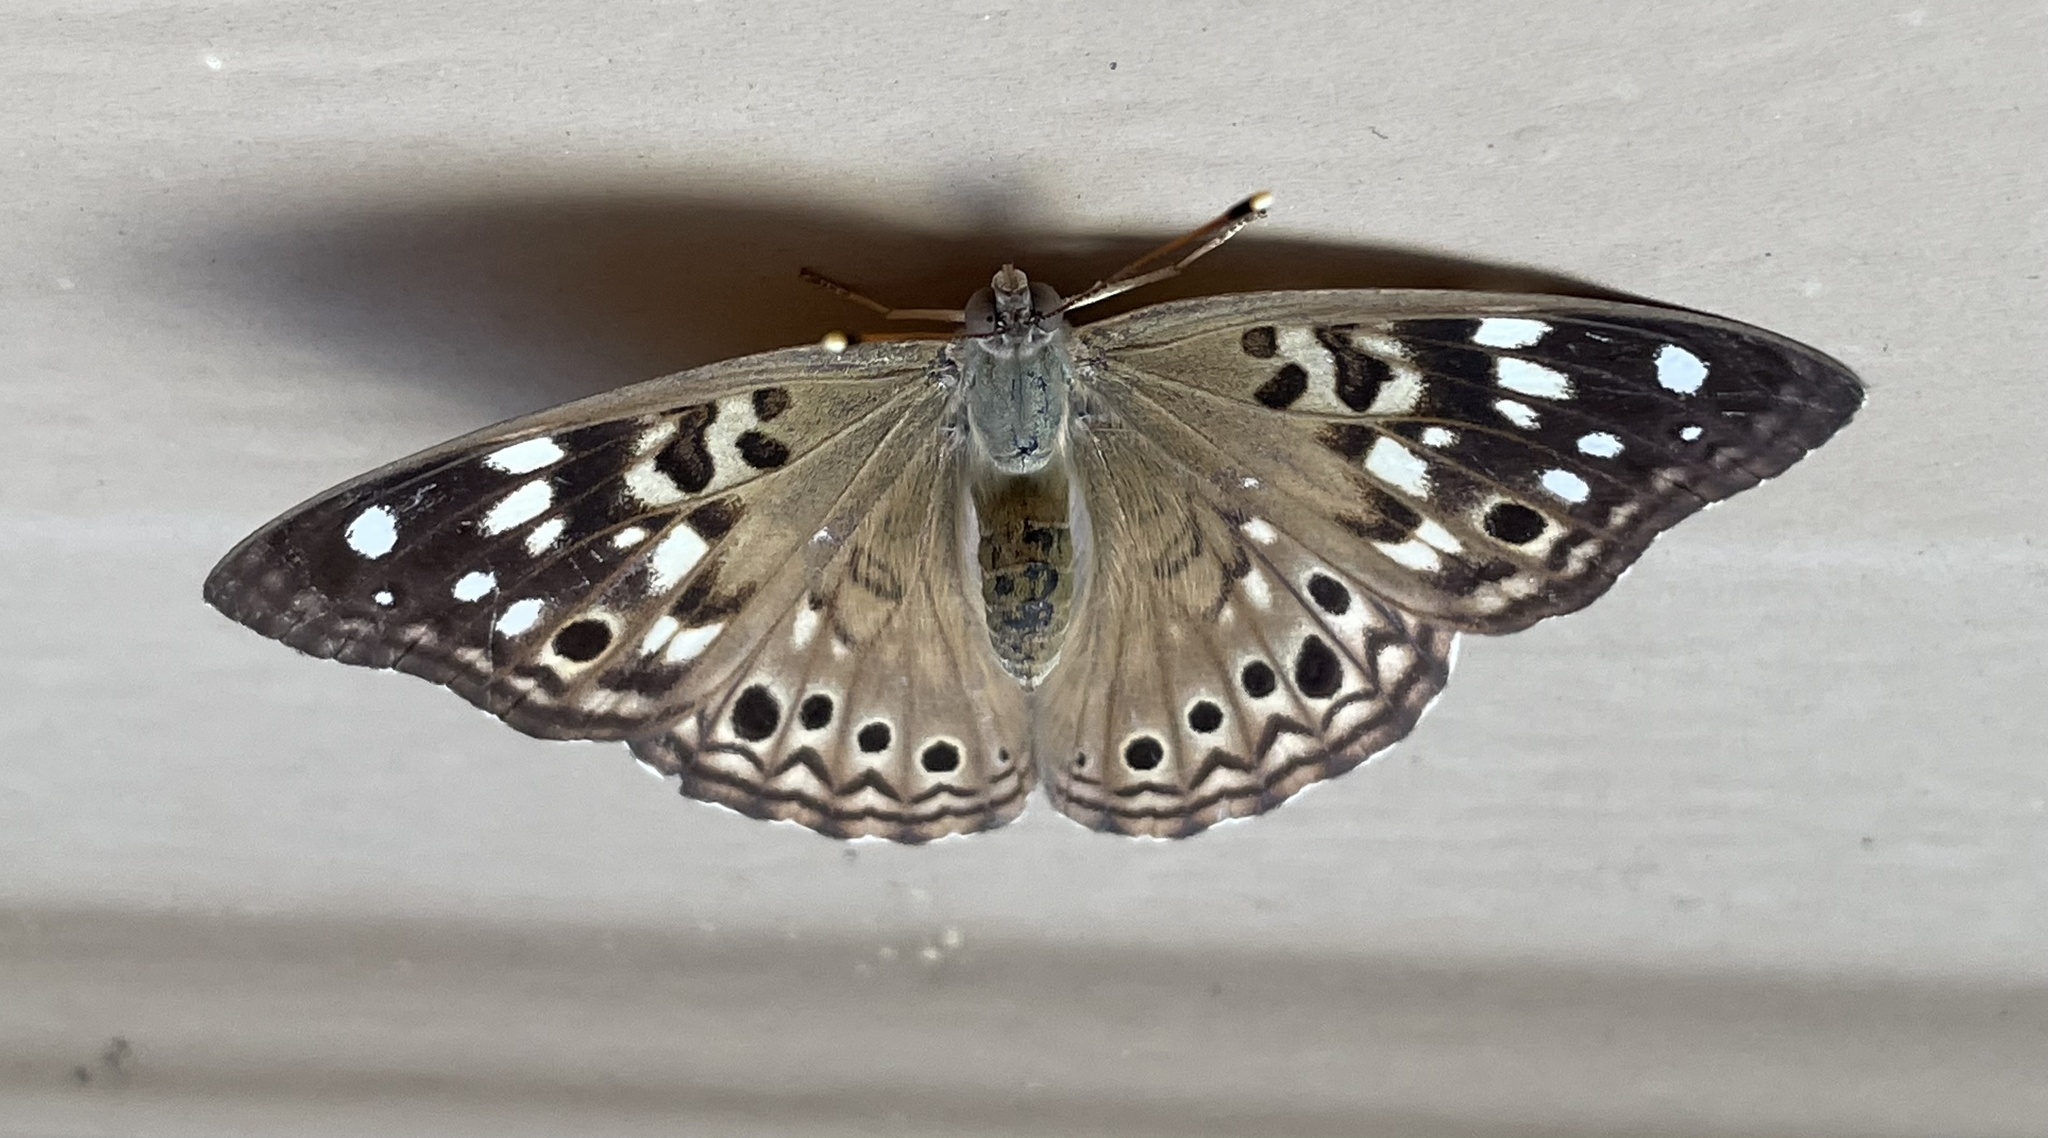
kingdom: Animalia
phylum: Arthropoda
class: Insecta
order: Lepidoptera
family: Nymphalidae
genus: Asterocampa
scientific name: Asterocampa celtis
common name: Hackberry emperor
